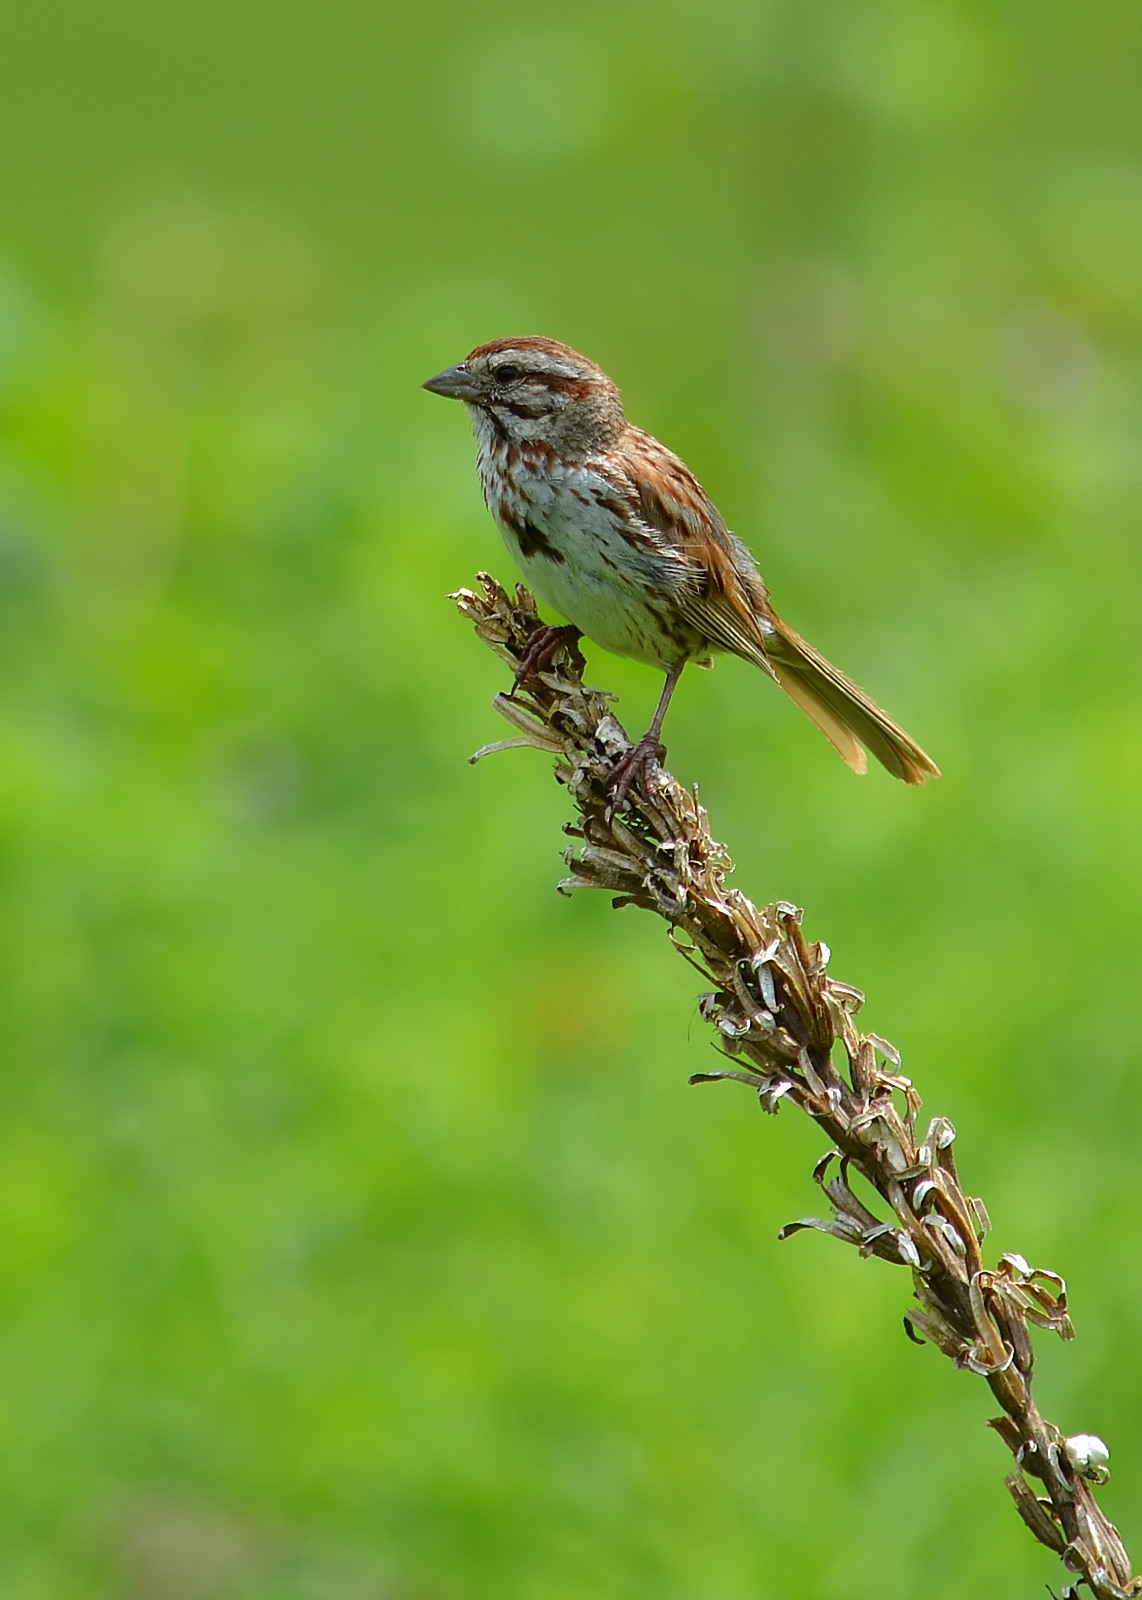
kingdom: Animalia
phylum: Chordata
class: Aves
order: Passeriformes
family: Passerellidae
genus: Melospiza
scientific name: Melospiza melodia
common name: Song sparrow
